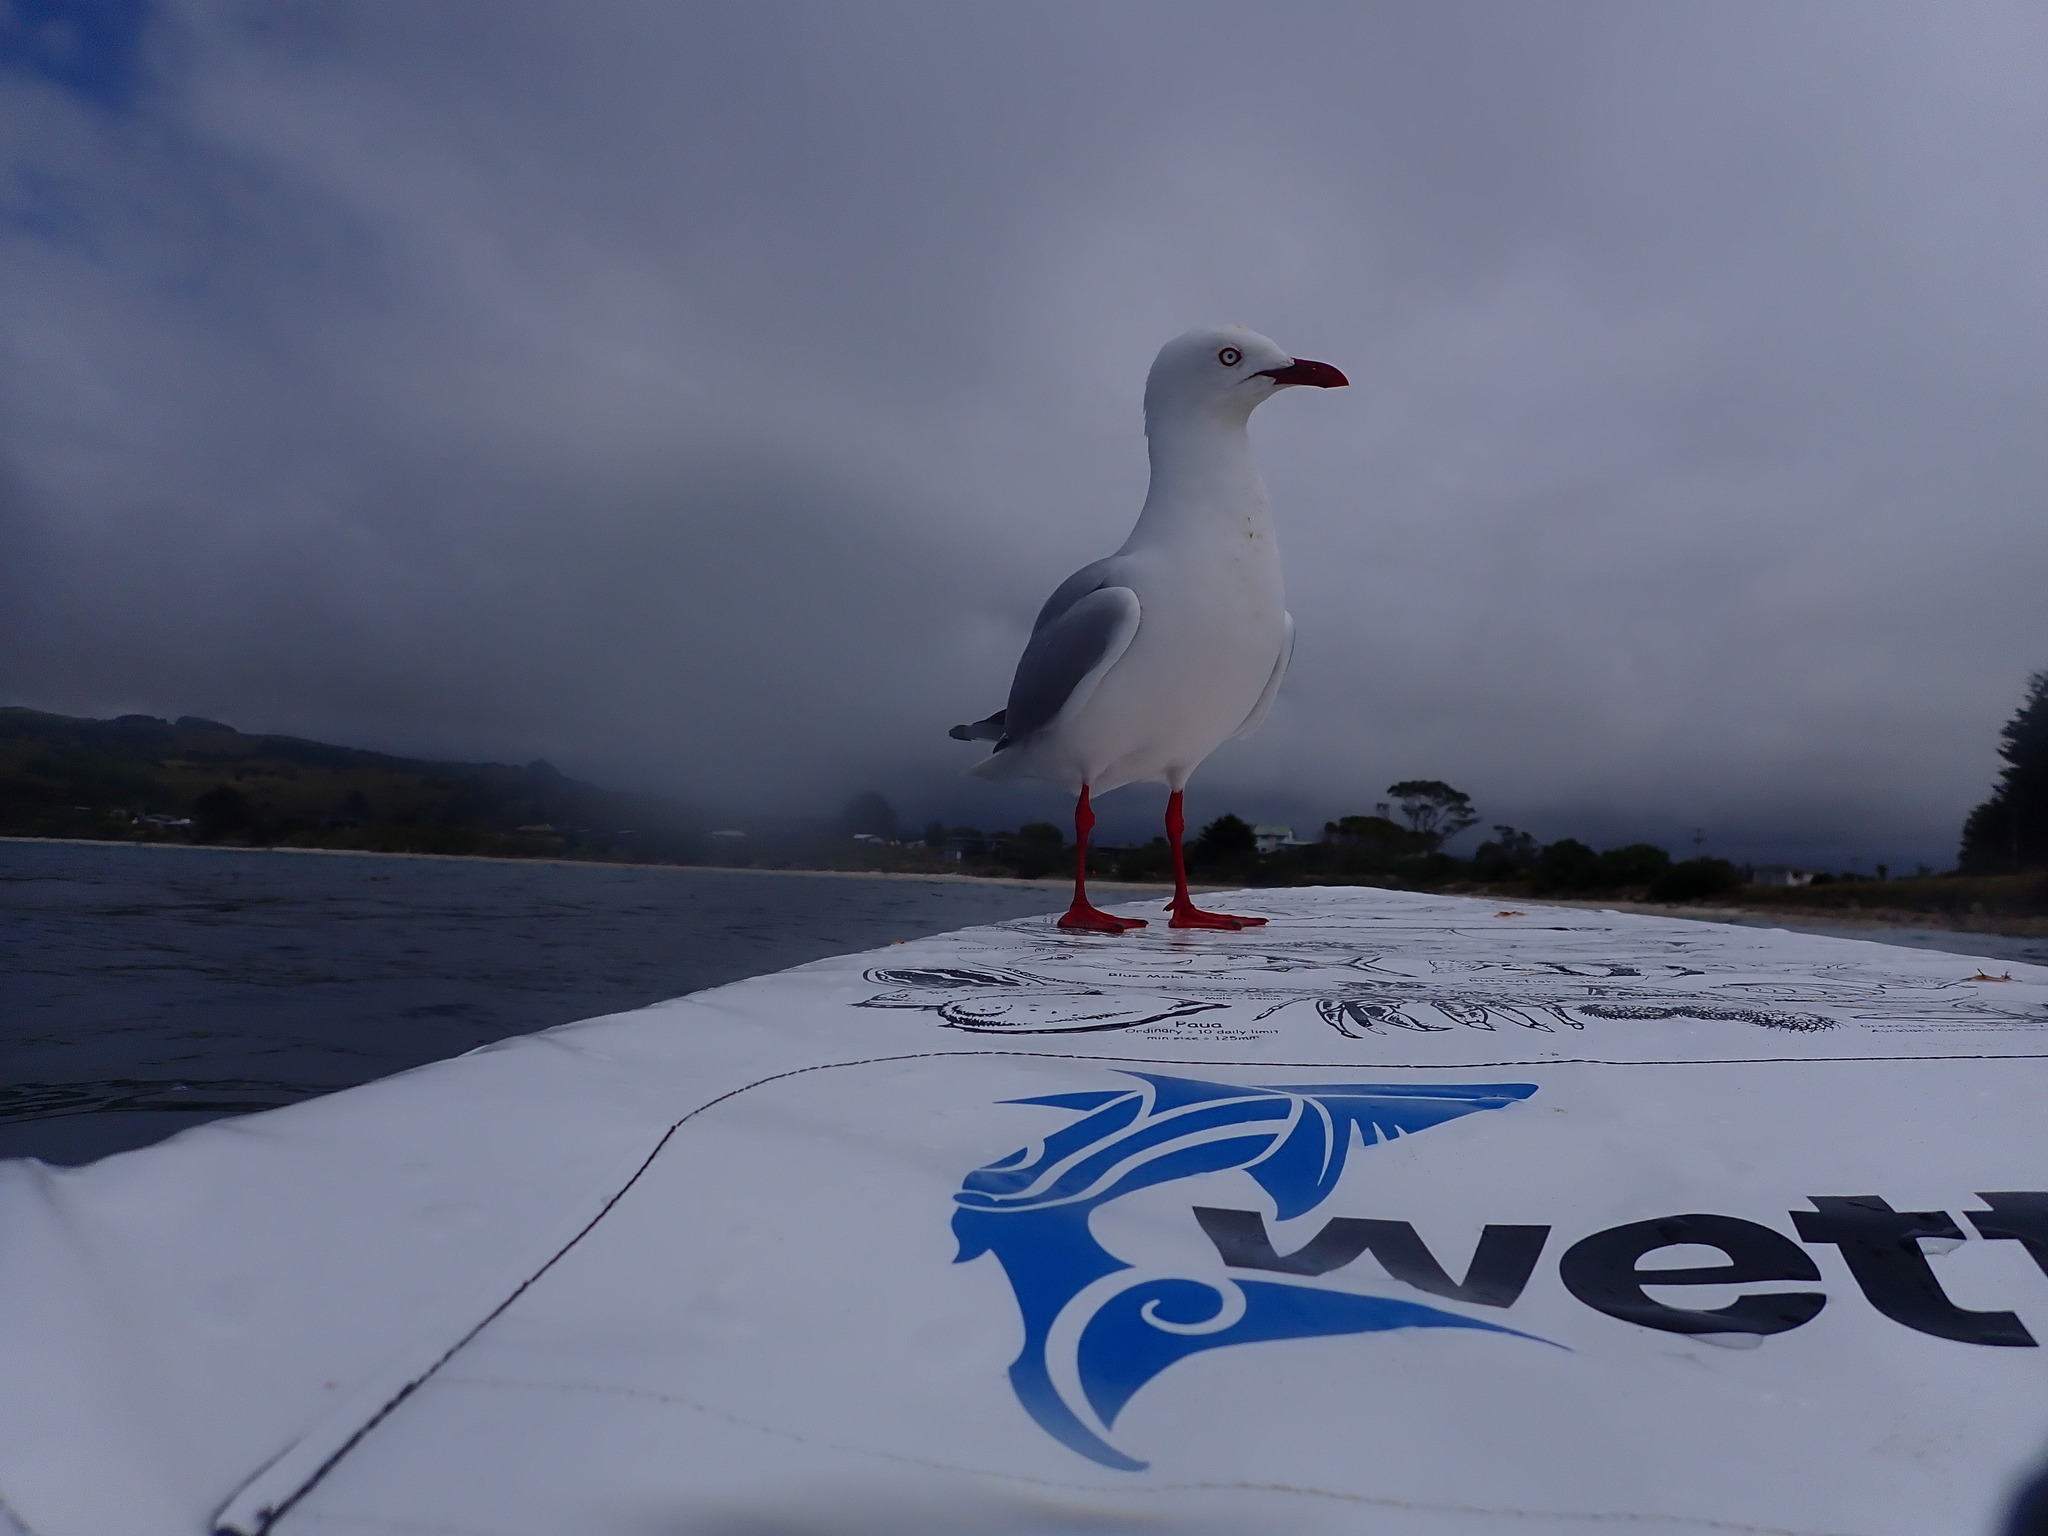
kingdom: Animalia
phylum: Chordata
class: Aves
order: Charadriiformes
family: Laridae
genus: Chroicocephalus
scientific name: Chroicocephalus novaehollandiae
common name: Silver gull
